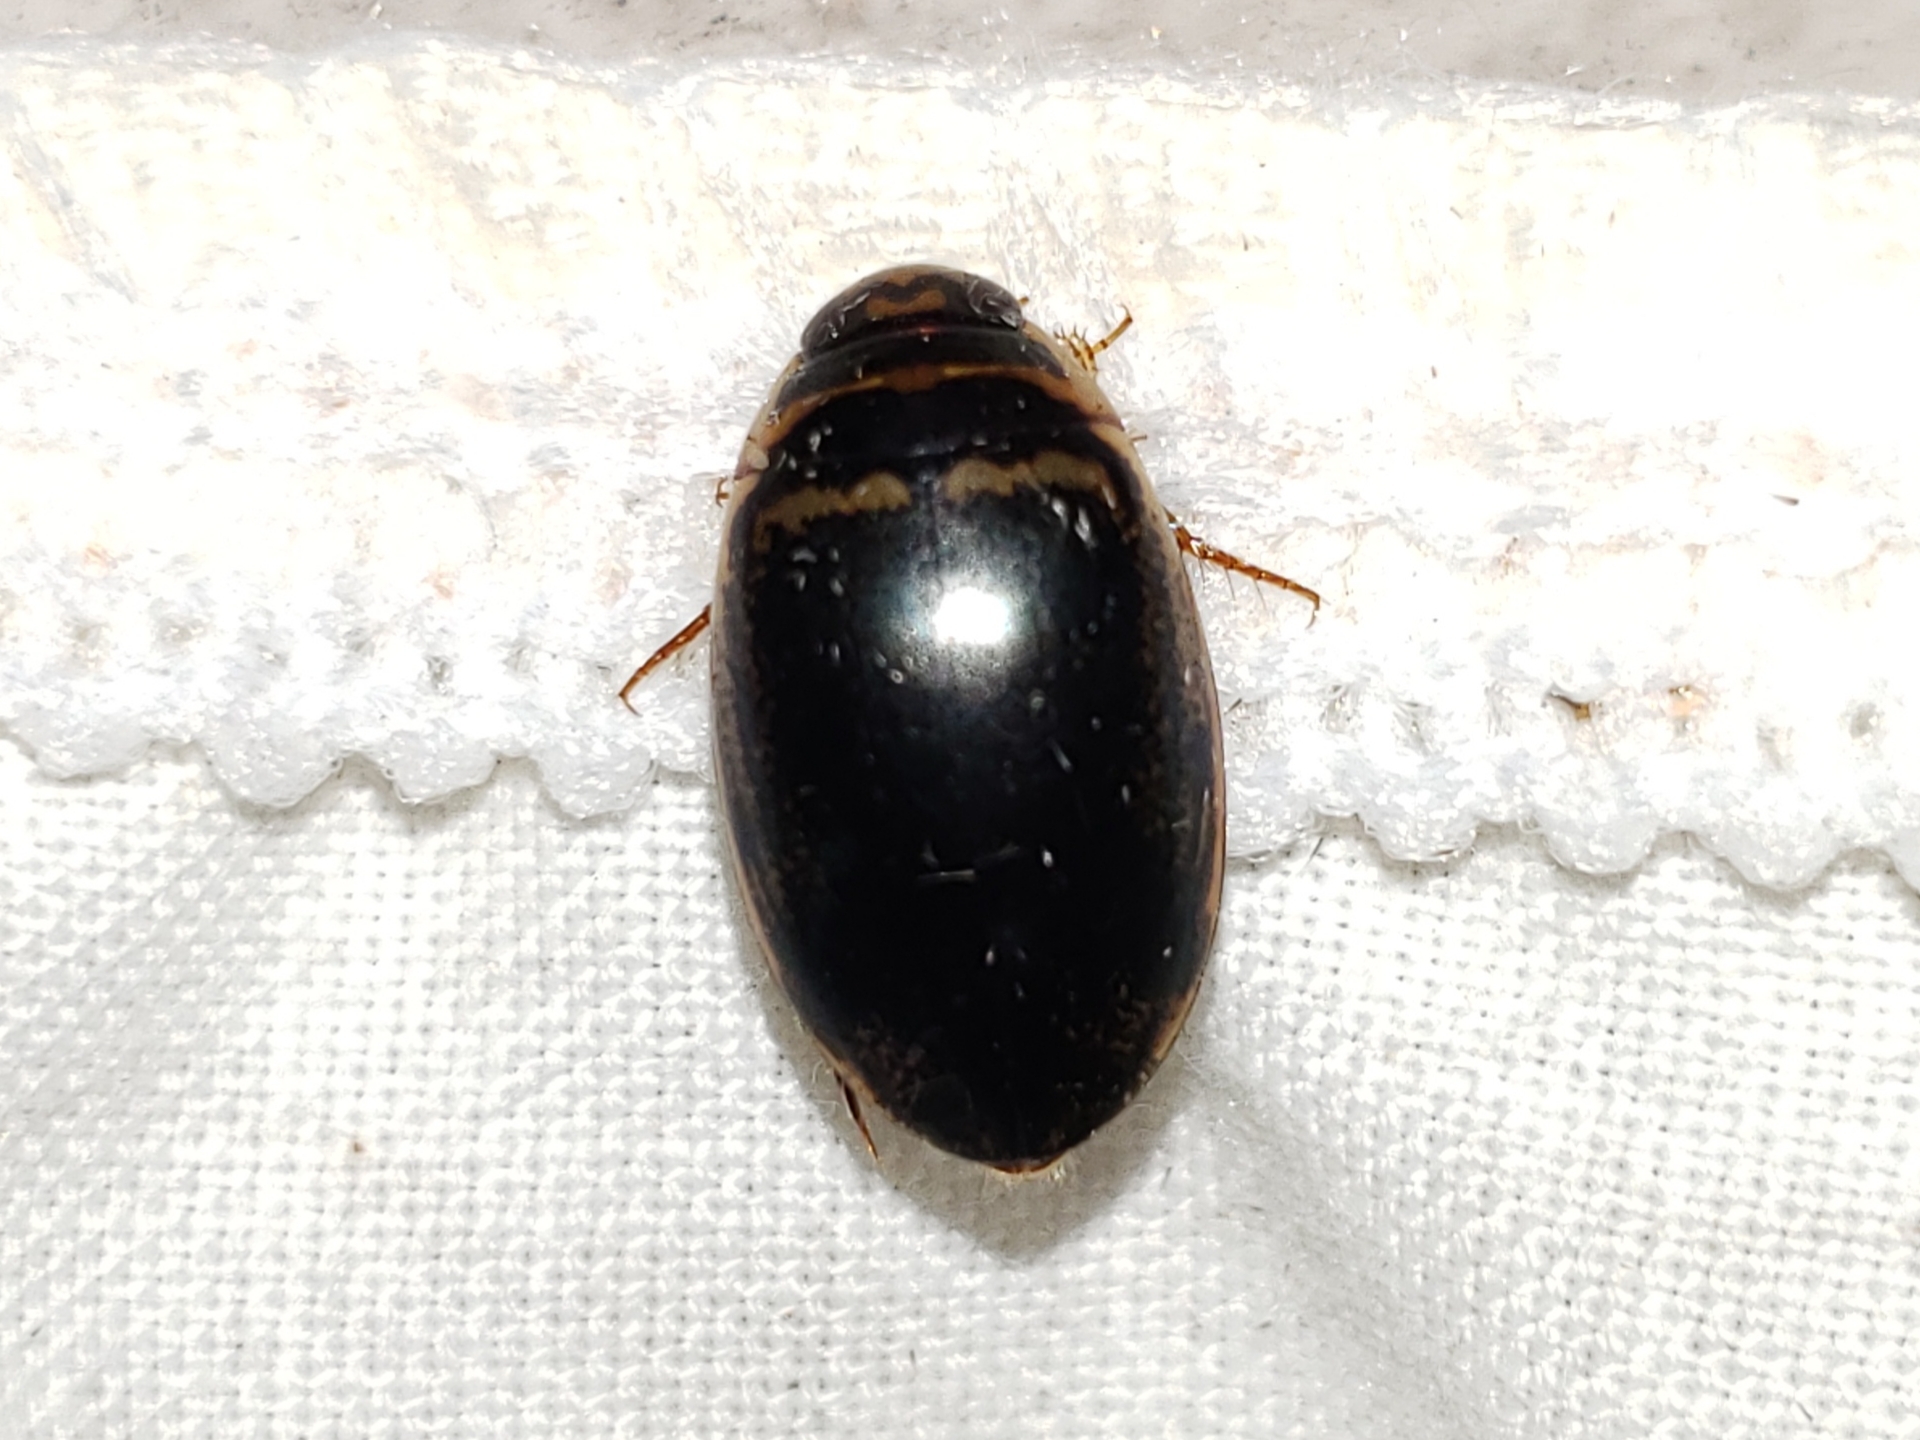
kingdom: Animalia
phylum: Arthropoda
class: Insecta
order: Coleoptera
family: Dytiscidae
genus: Thermonectus
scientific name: Thermonectus basillaris
